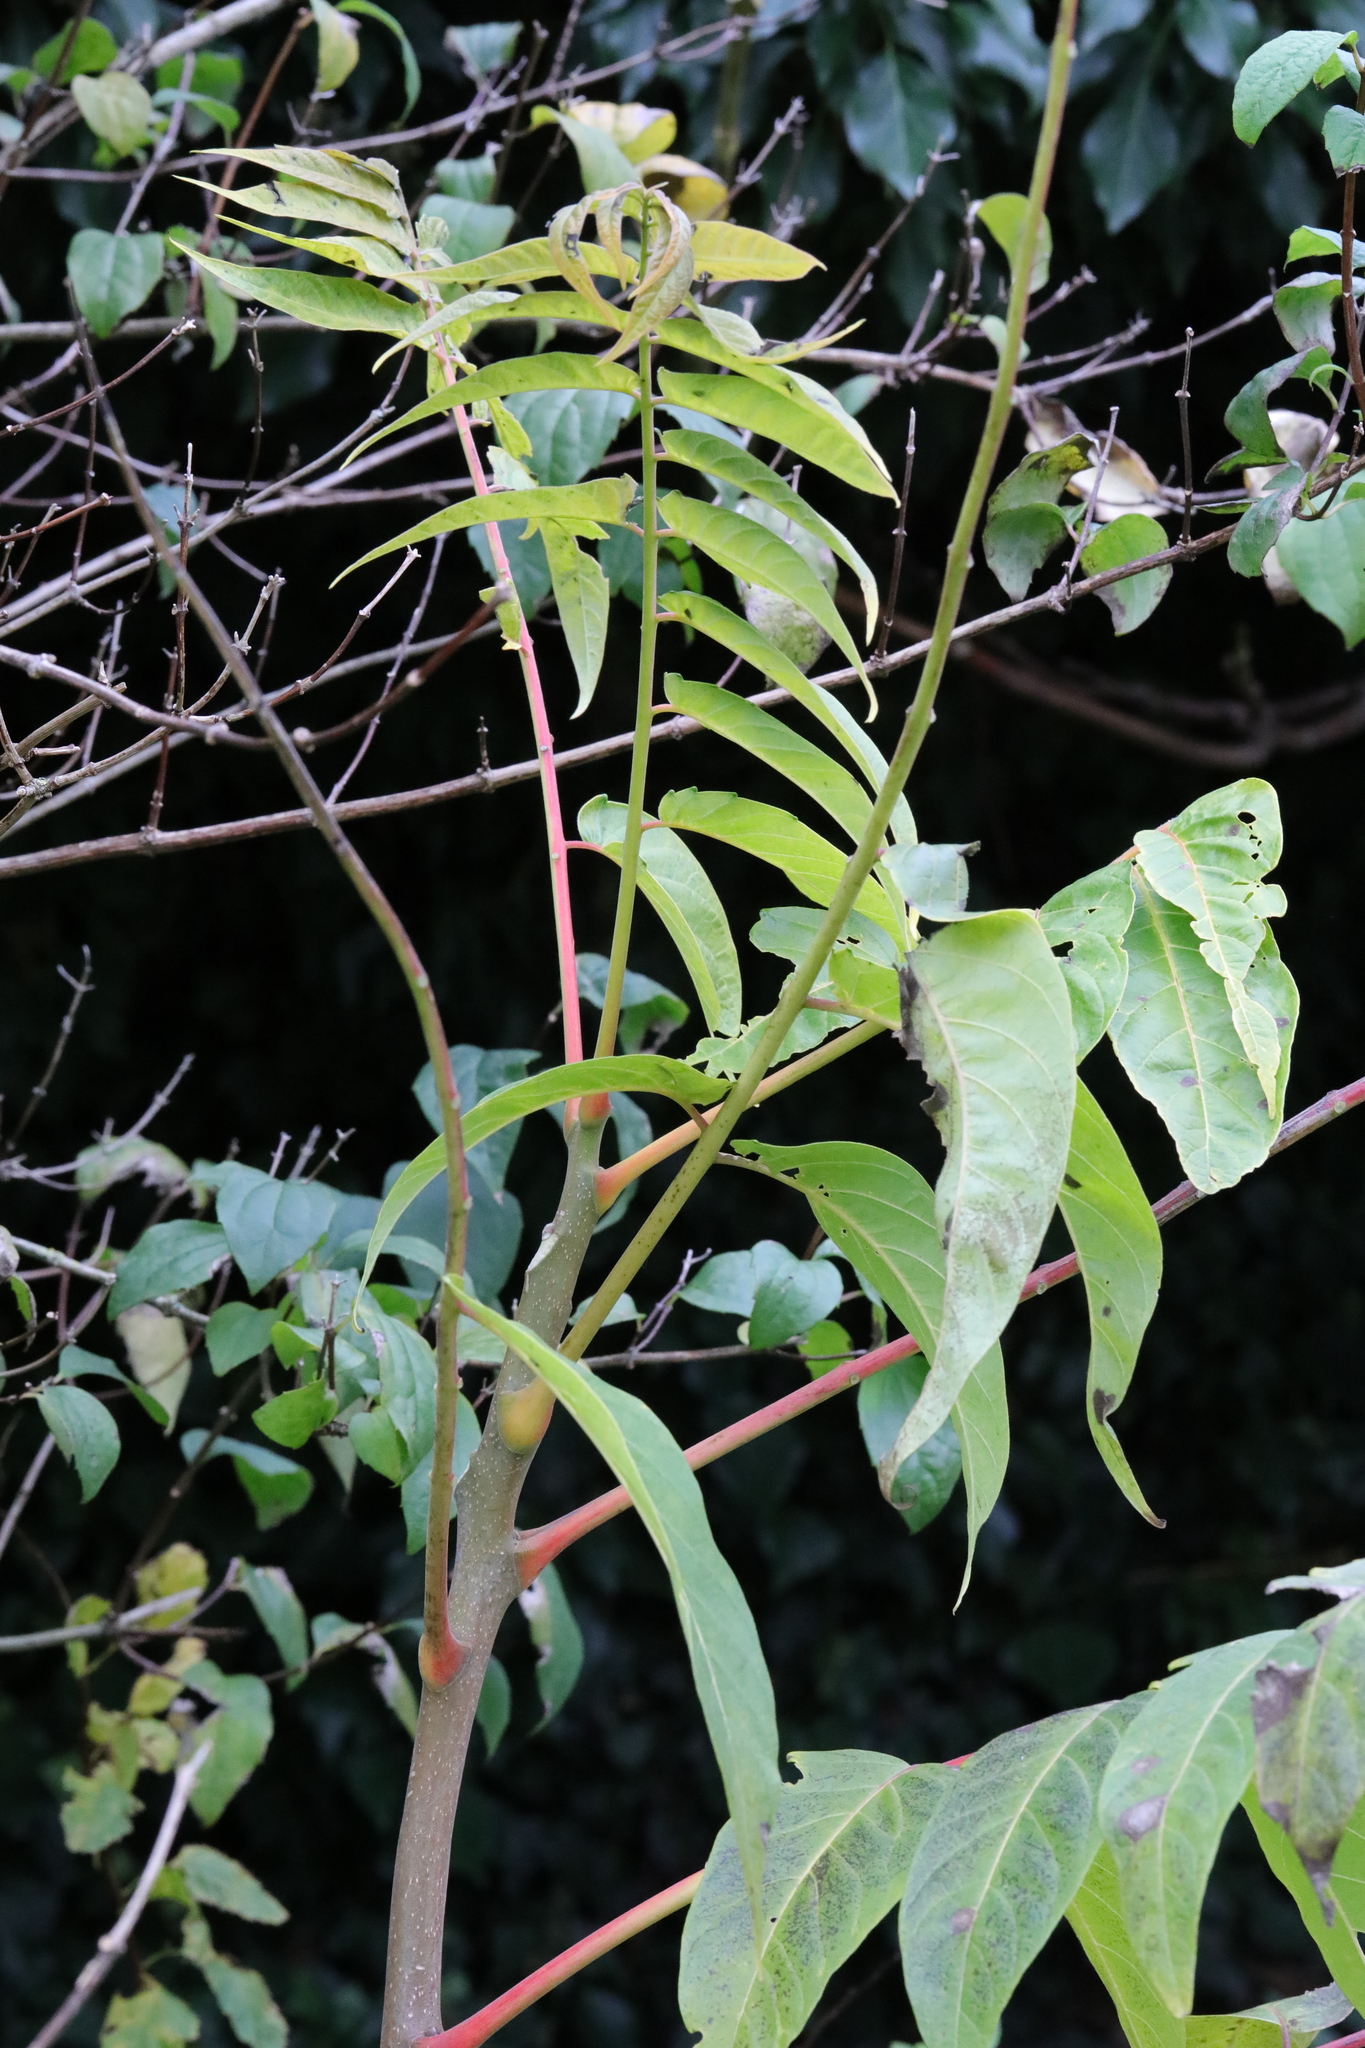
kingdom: Plantae
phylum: Tracheophyta
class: Magnoliopsida
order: Sapindales
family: Simaroubaceae
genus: Ailanthus
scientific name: Ailanthus altissima
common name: Tree-of-heaven
